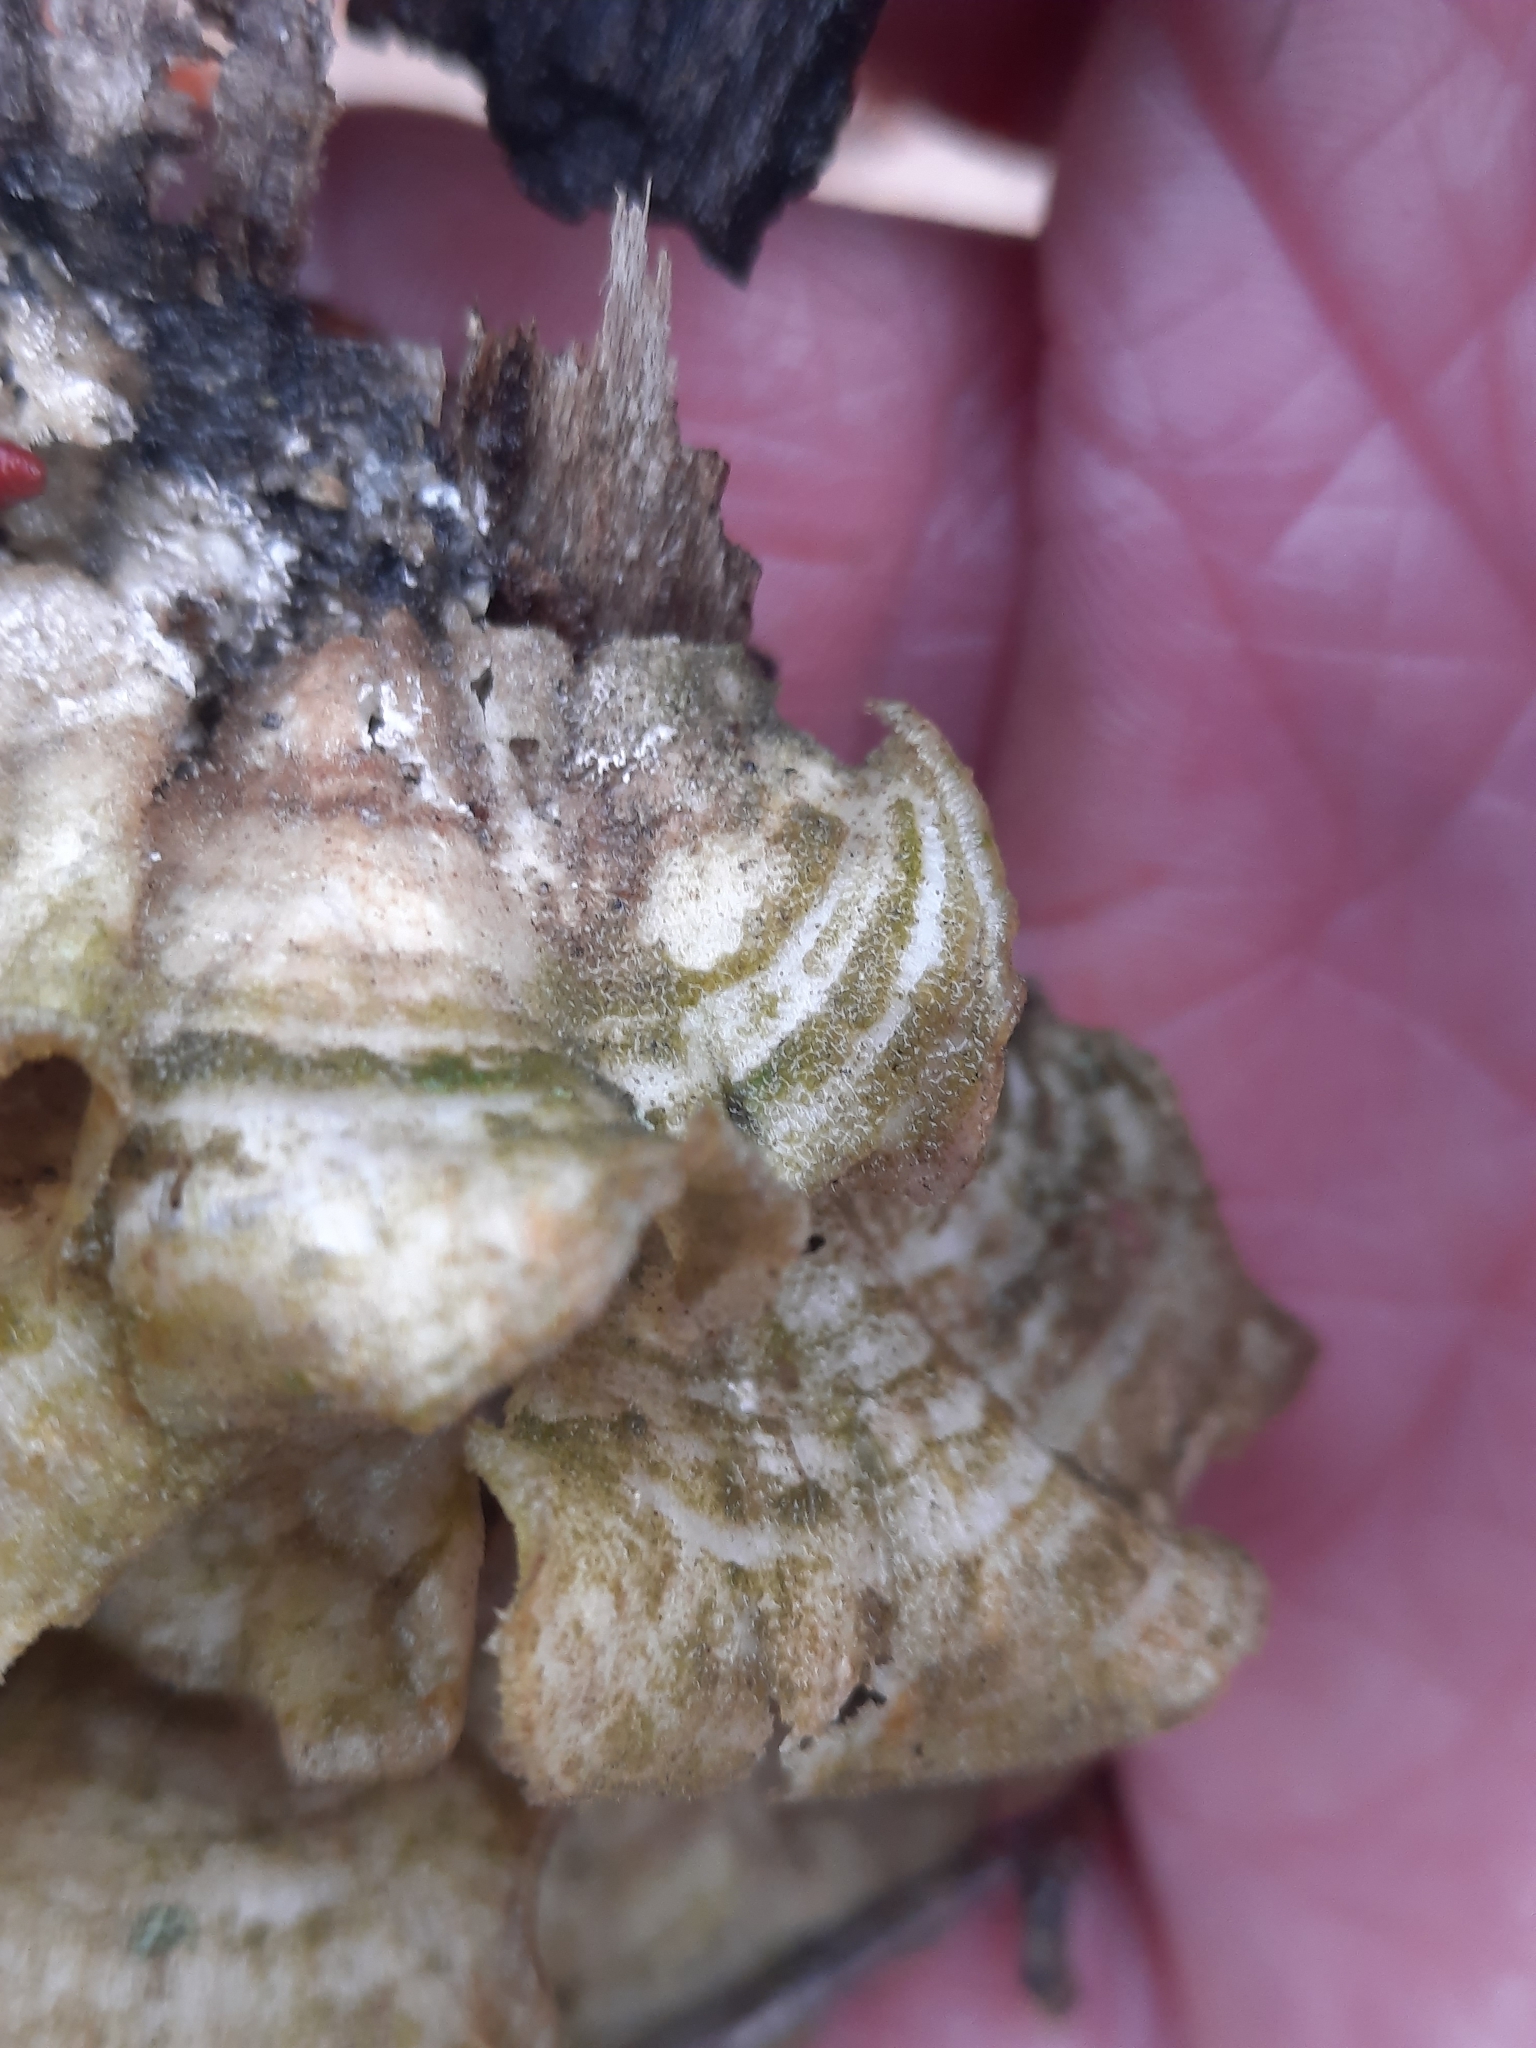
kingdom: Fungi
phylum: Basidiomycota
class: Agaricomycetes
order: Polyporales
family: Cerrenaceae
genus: Cerrena
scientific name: Cerrena unicolor
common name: Mossy maze polypore
